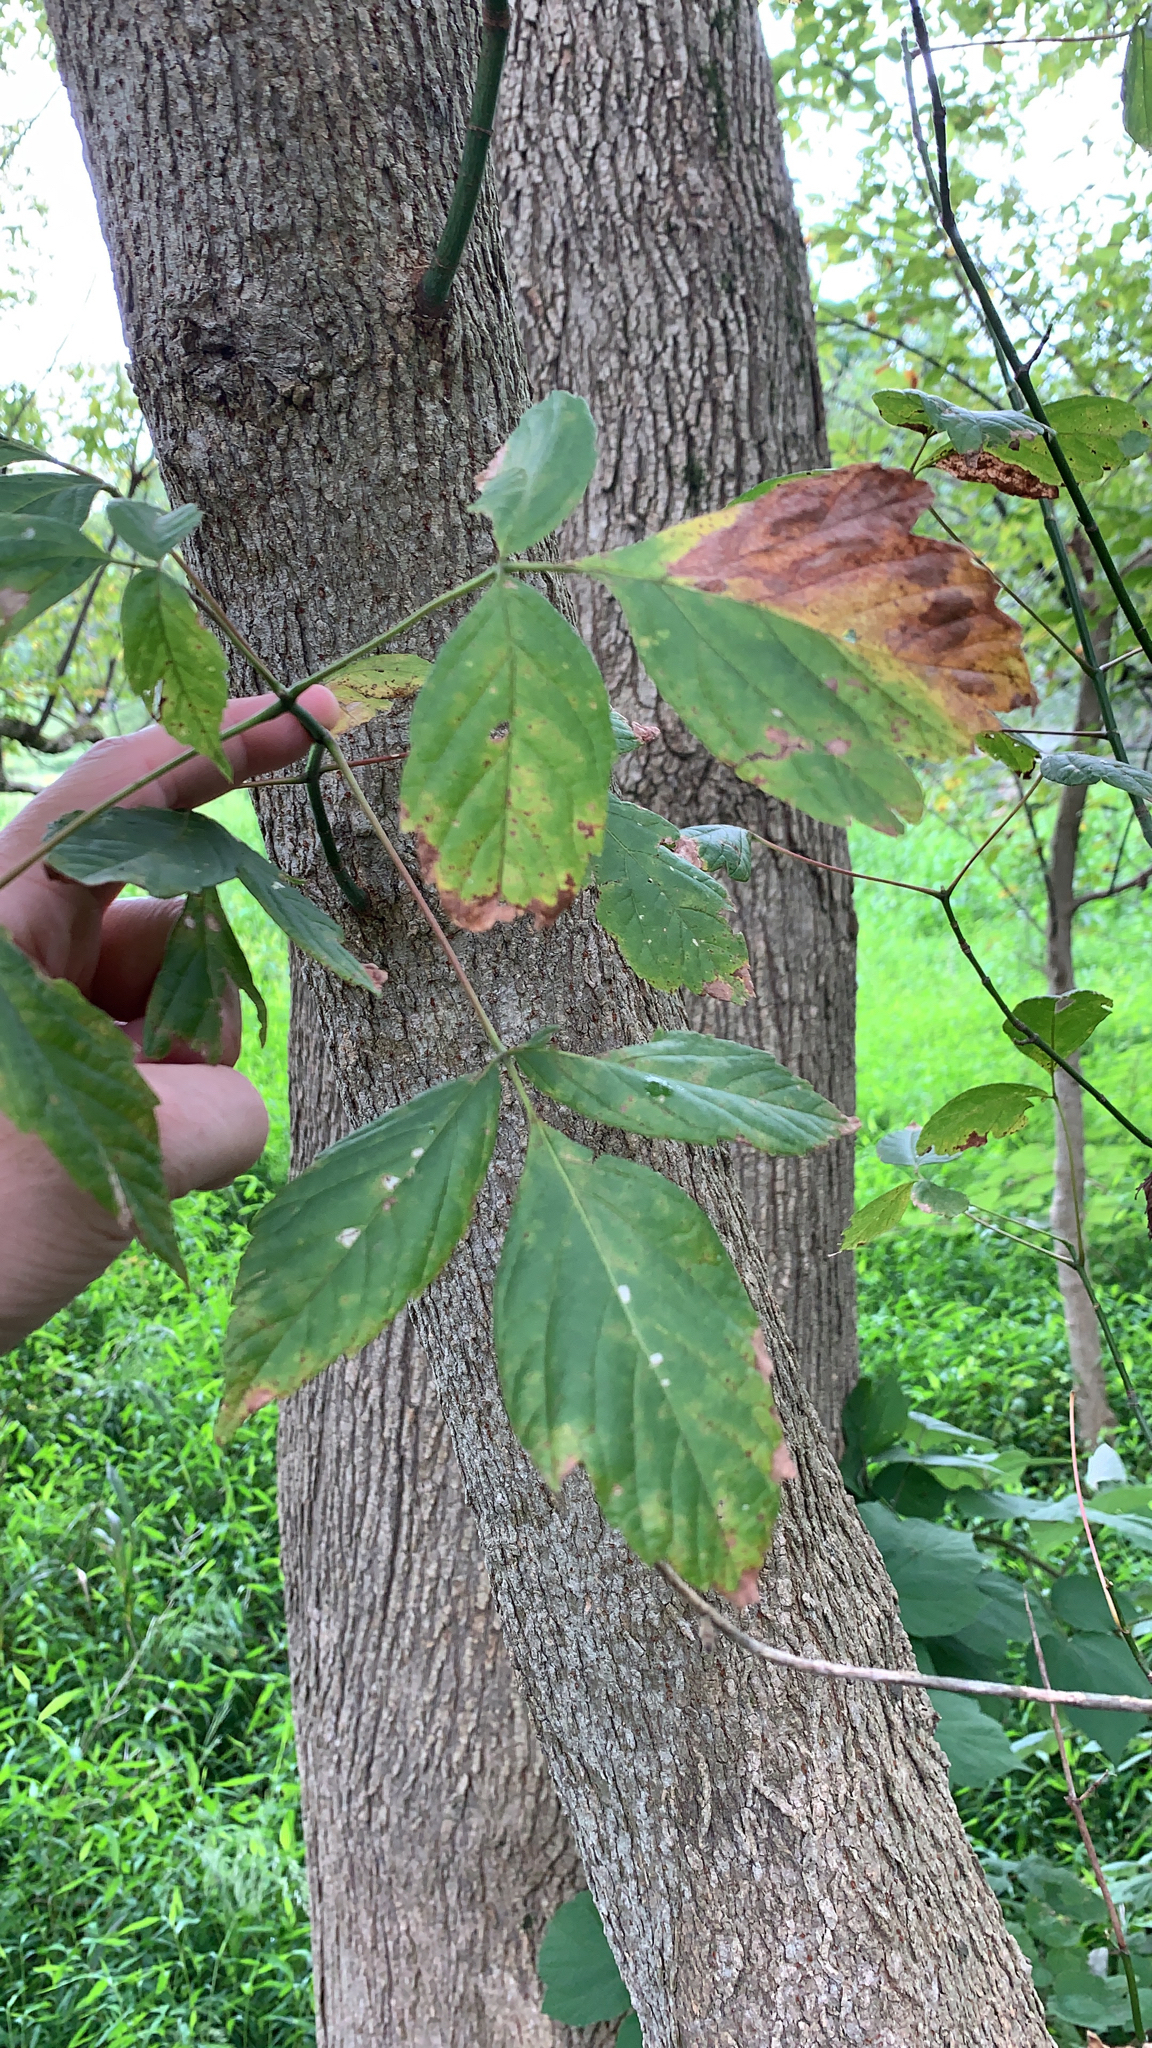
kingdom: Plantae
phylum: Tracheophyta
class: Magnoliopsida
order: Sapindales
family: Sapindaceae
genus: Acer
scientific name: Acer negundo
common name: Ashleaf maple
